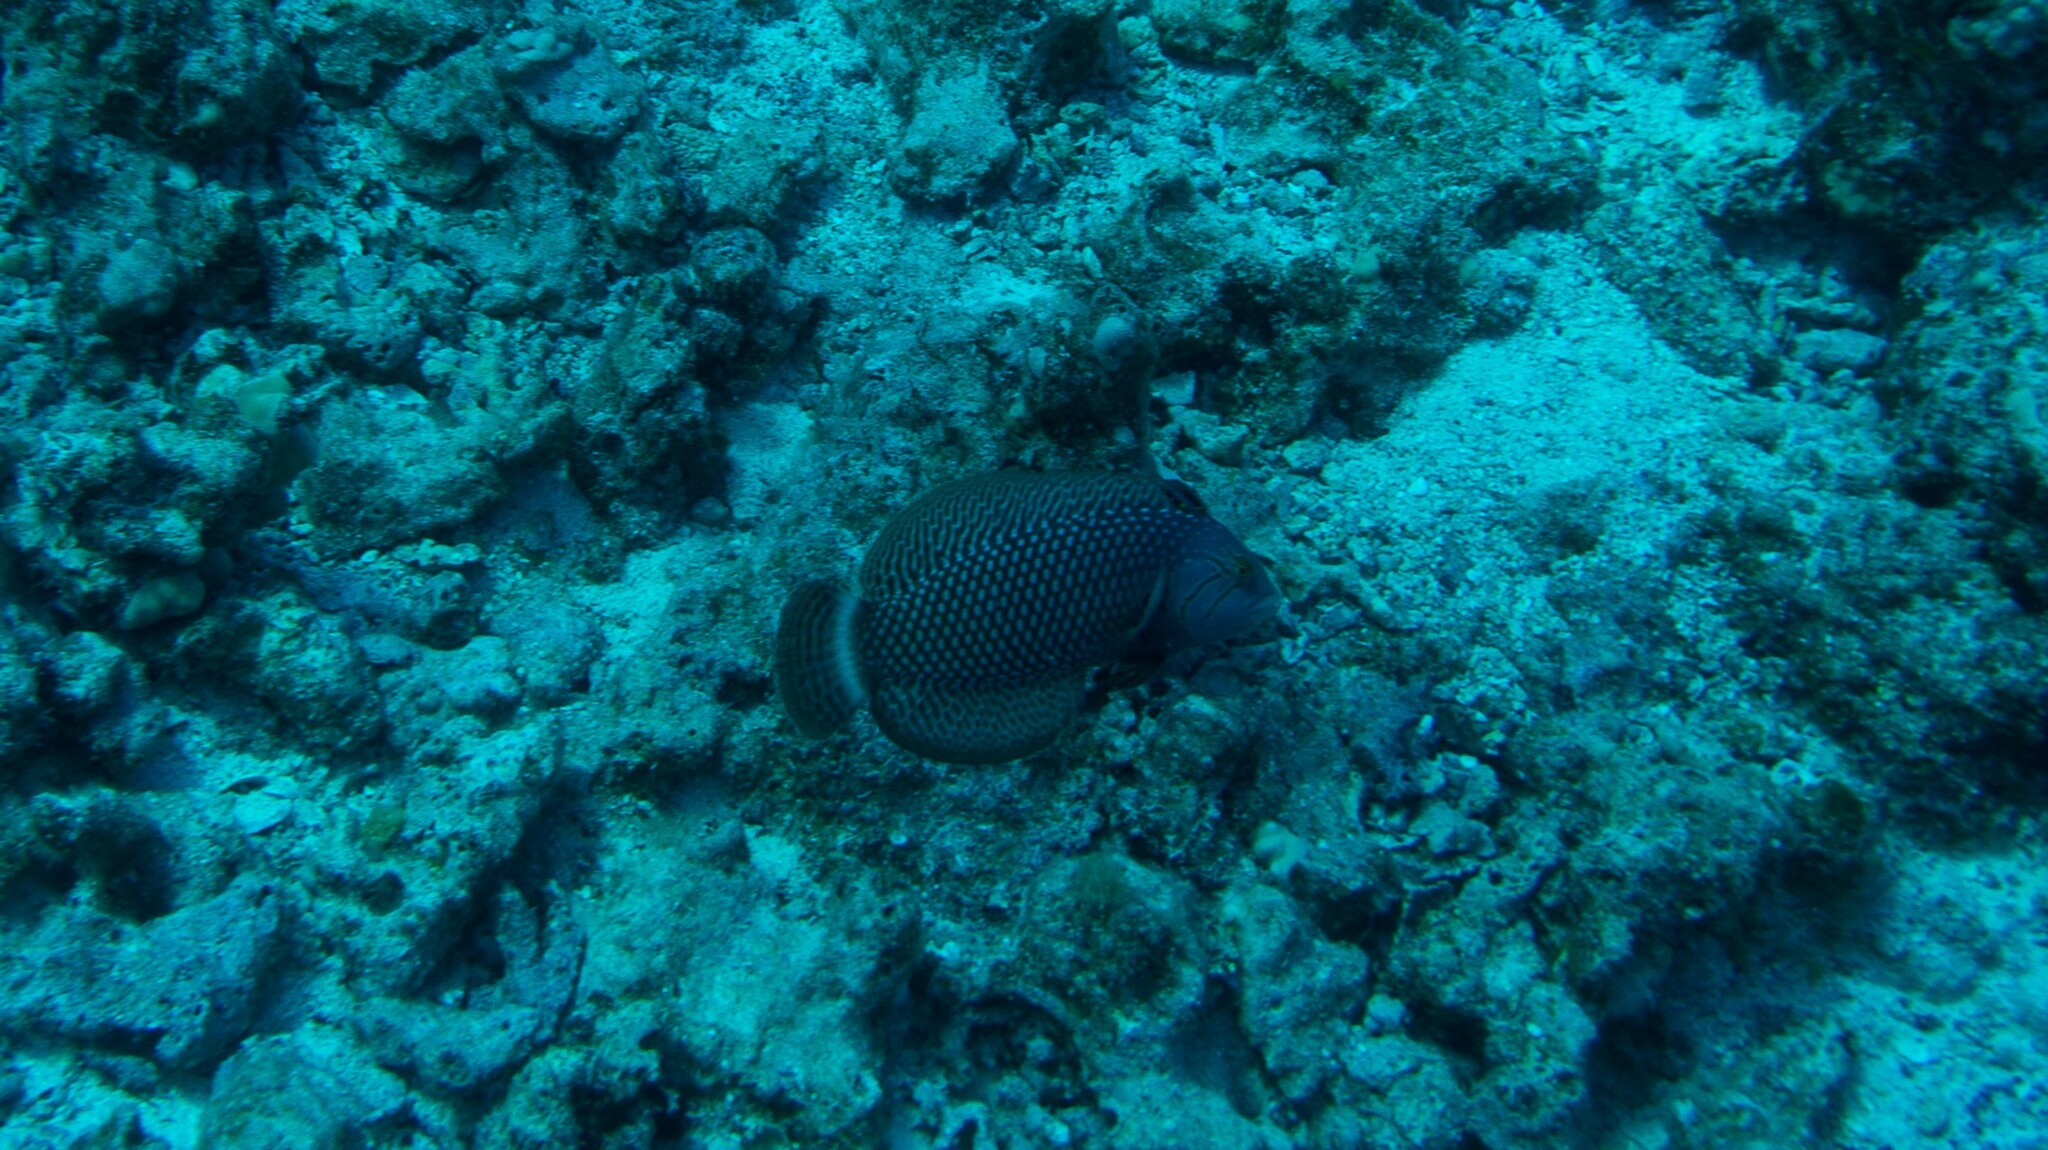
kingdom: Animalia
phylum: Chordata
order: Perciformes
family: Labridae
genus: Novaculichthys
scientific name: Novaculichthys taeniourus
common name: Rockmover wrasse
